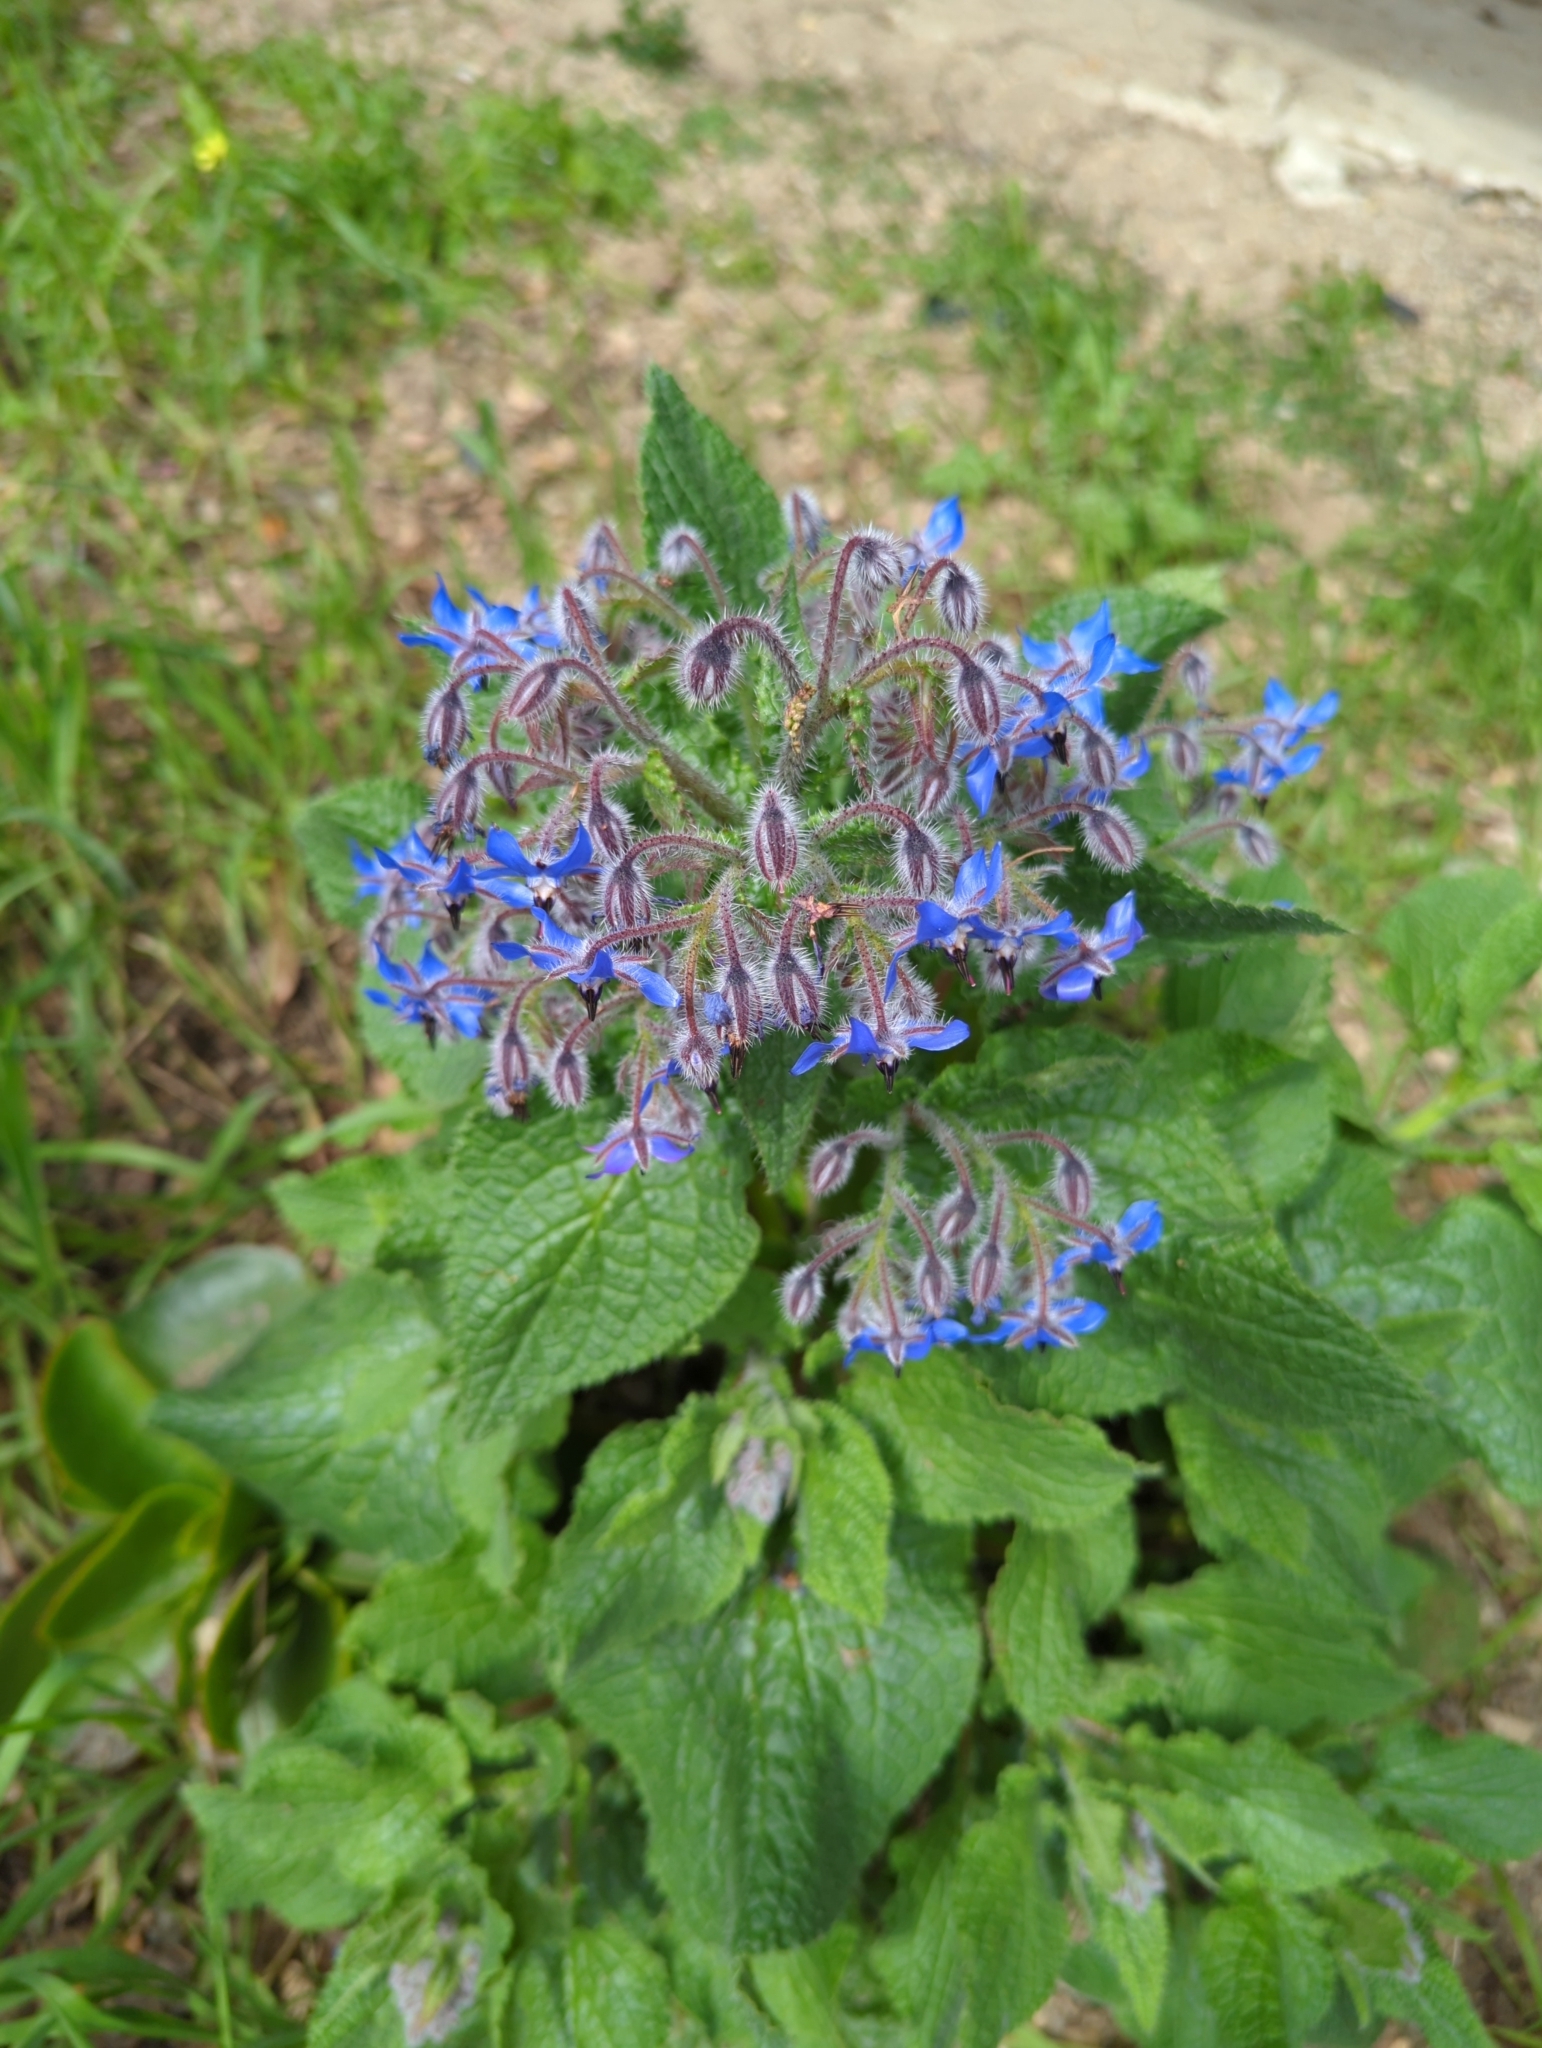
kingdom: Plantae
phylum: Tracheophyta
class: Magnoliopsida
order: Boraginales
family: Boraginaceae
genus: Borago
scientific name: Borago officinalis
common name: Borage
